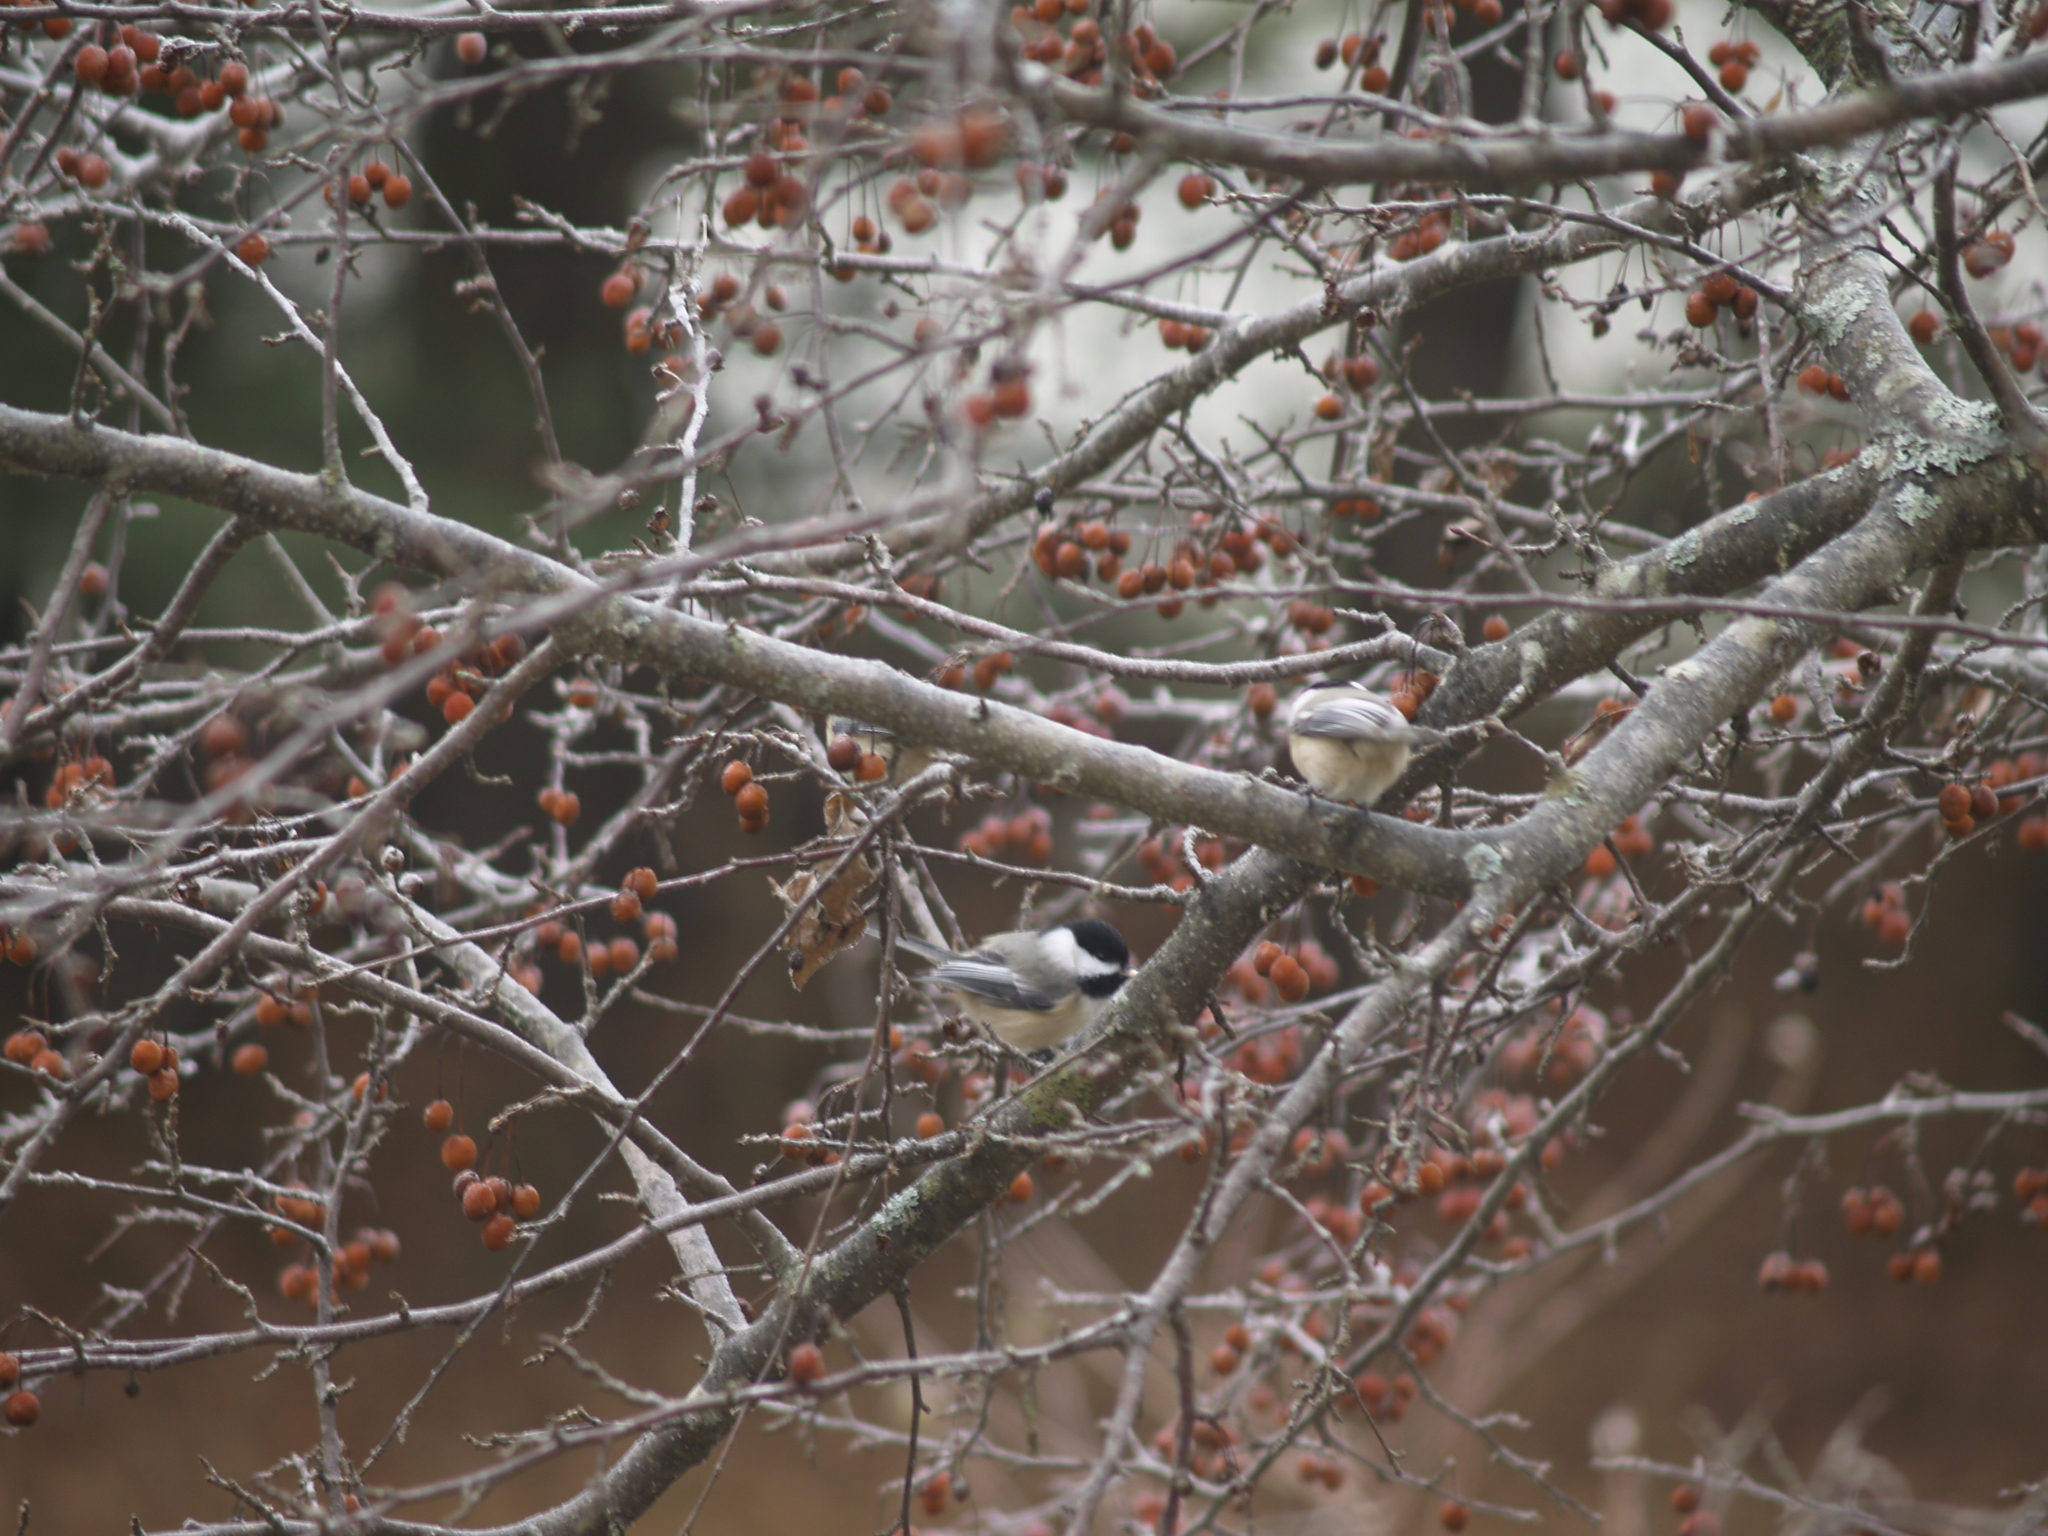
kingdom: Animalia
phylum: Chordata
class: Aves
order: Passeriformes
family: Paridae
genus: Poecile
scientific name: Poecile atricapillus
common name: Black-capped chickadee
